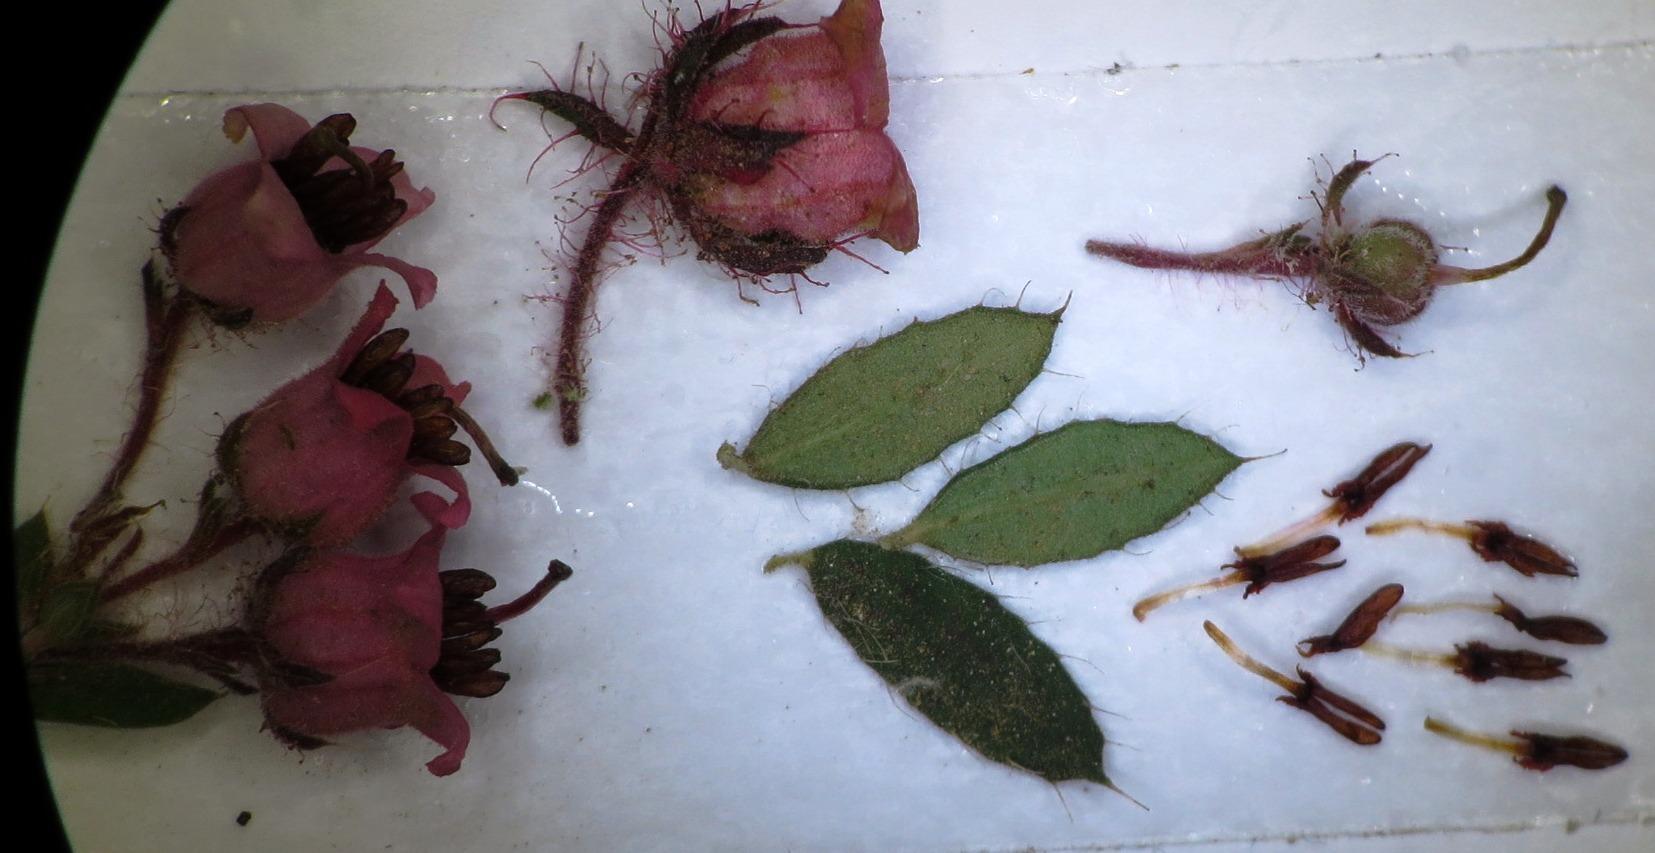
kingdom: Plantae
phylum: Tracheophyta
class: Magnoliopsida
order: Ericales
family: Ericaceae
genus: Erica
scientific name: Erica fausta
